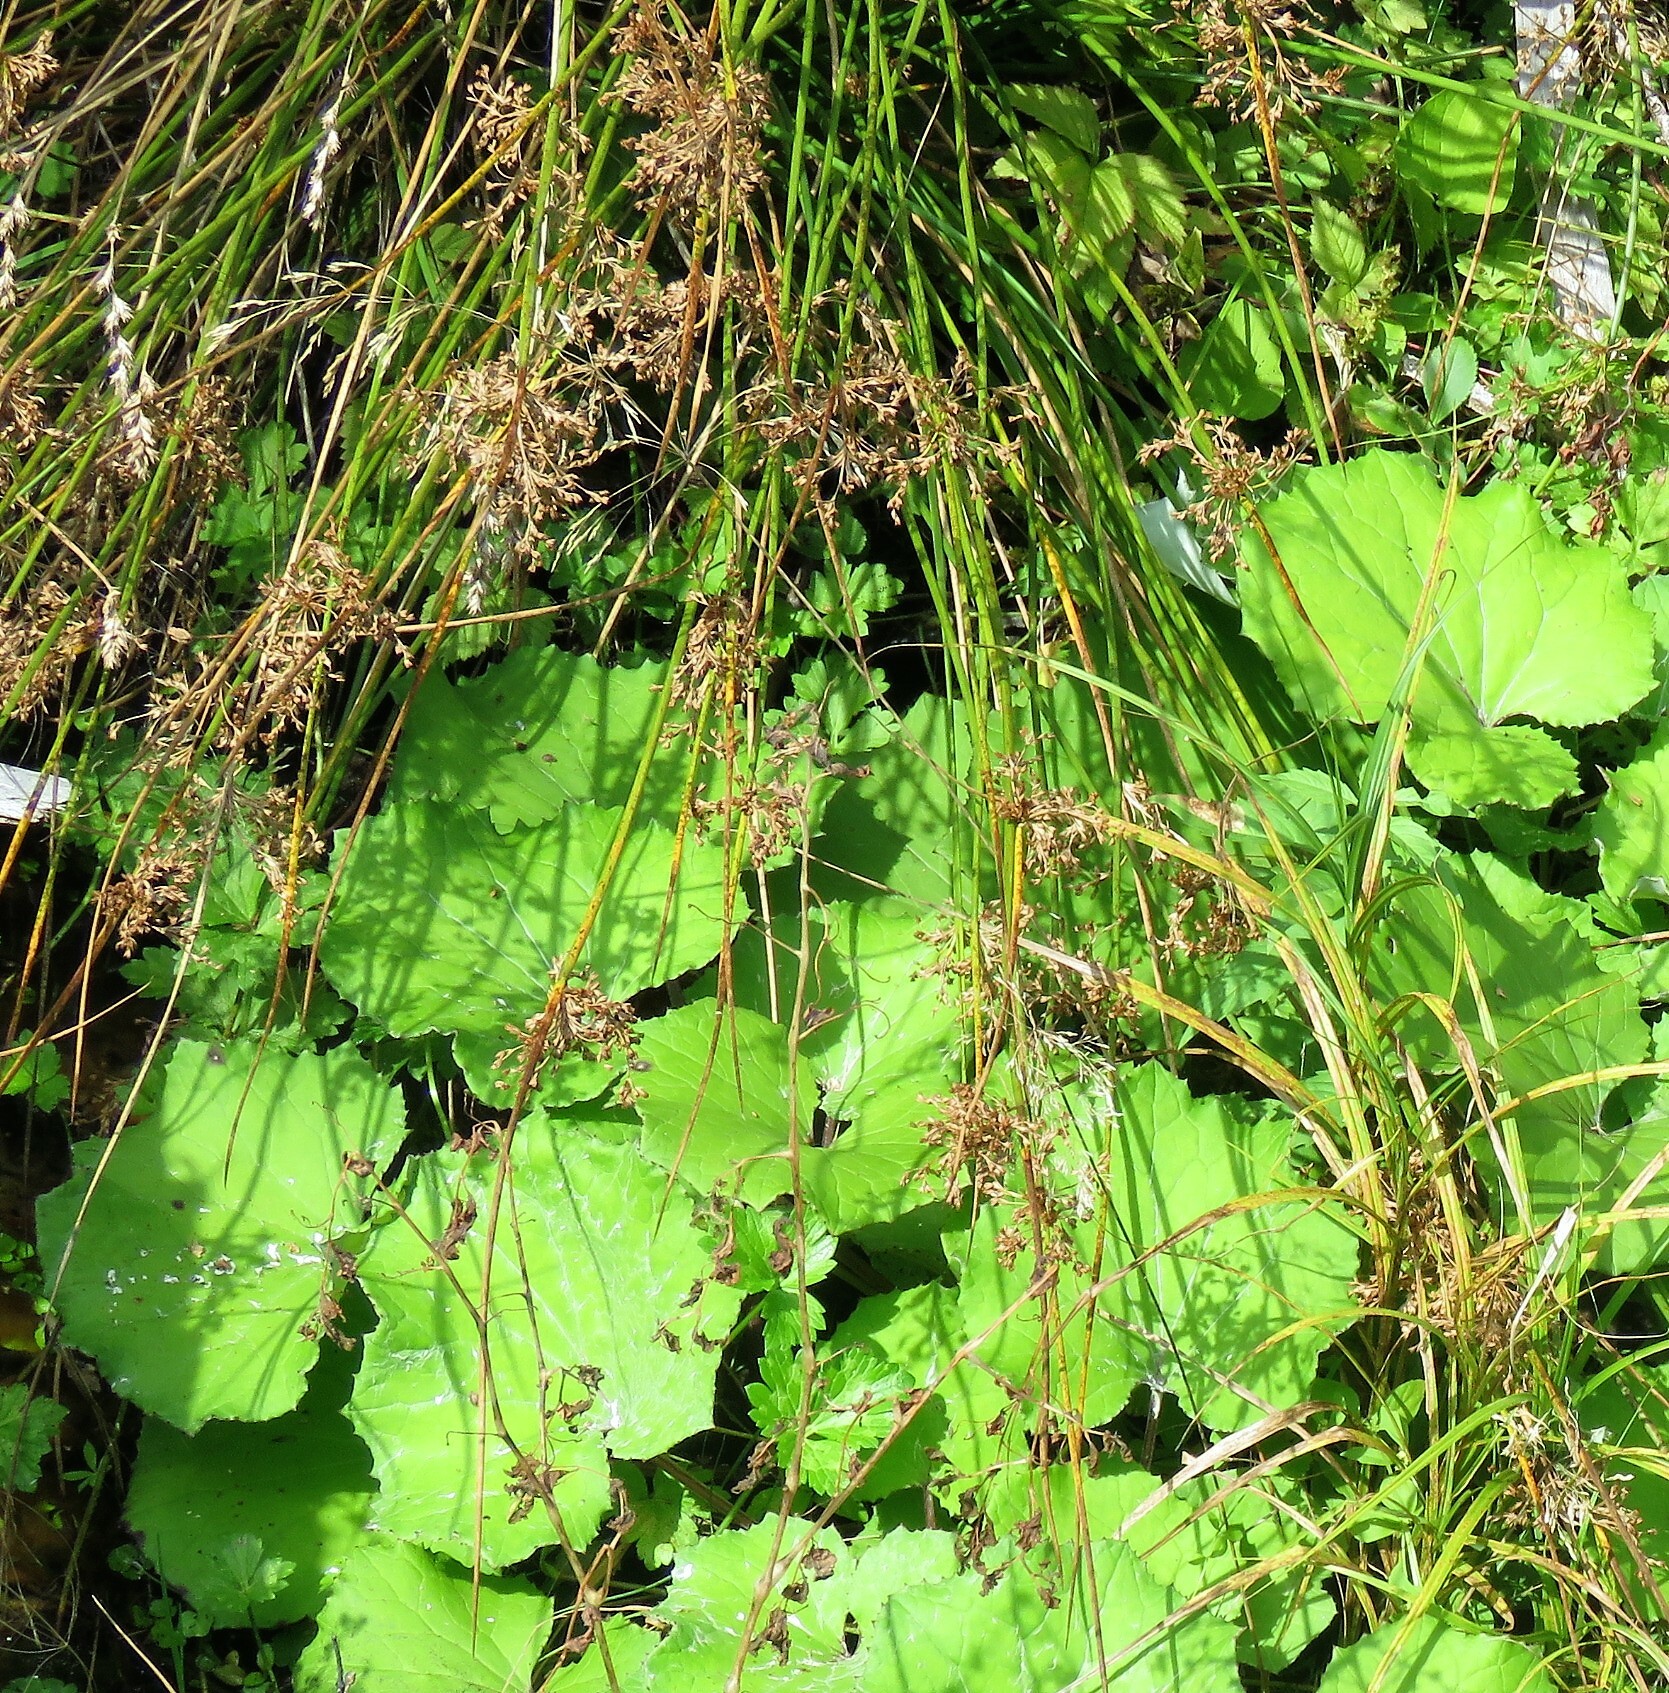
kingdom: Plantae
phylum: Tracheophyta
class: Liliopsida
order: Poales
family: Juncaceae
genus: Juncus
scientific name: Juncus effusus
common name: Soft rush
